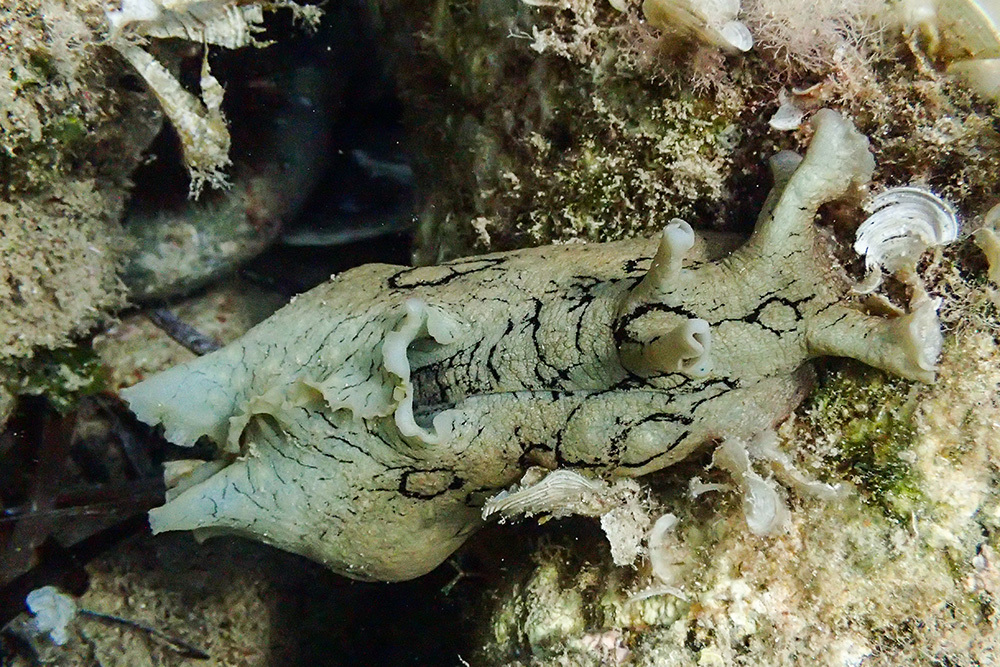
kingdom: Animalia
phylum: Mollusca
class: Gastropoda
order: Aplysiida
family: Aplysiidae
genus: Aplysia
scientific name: Aplysia dactylomela
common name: Large-spotted sea hare
